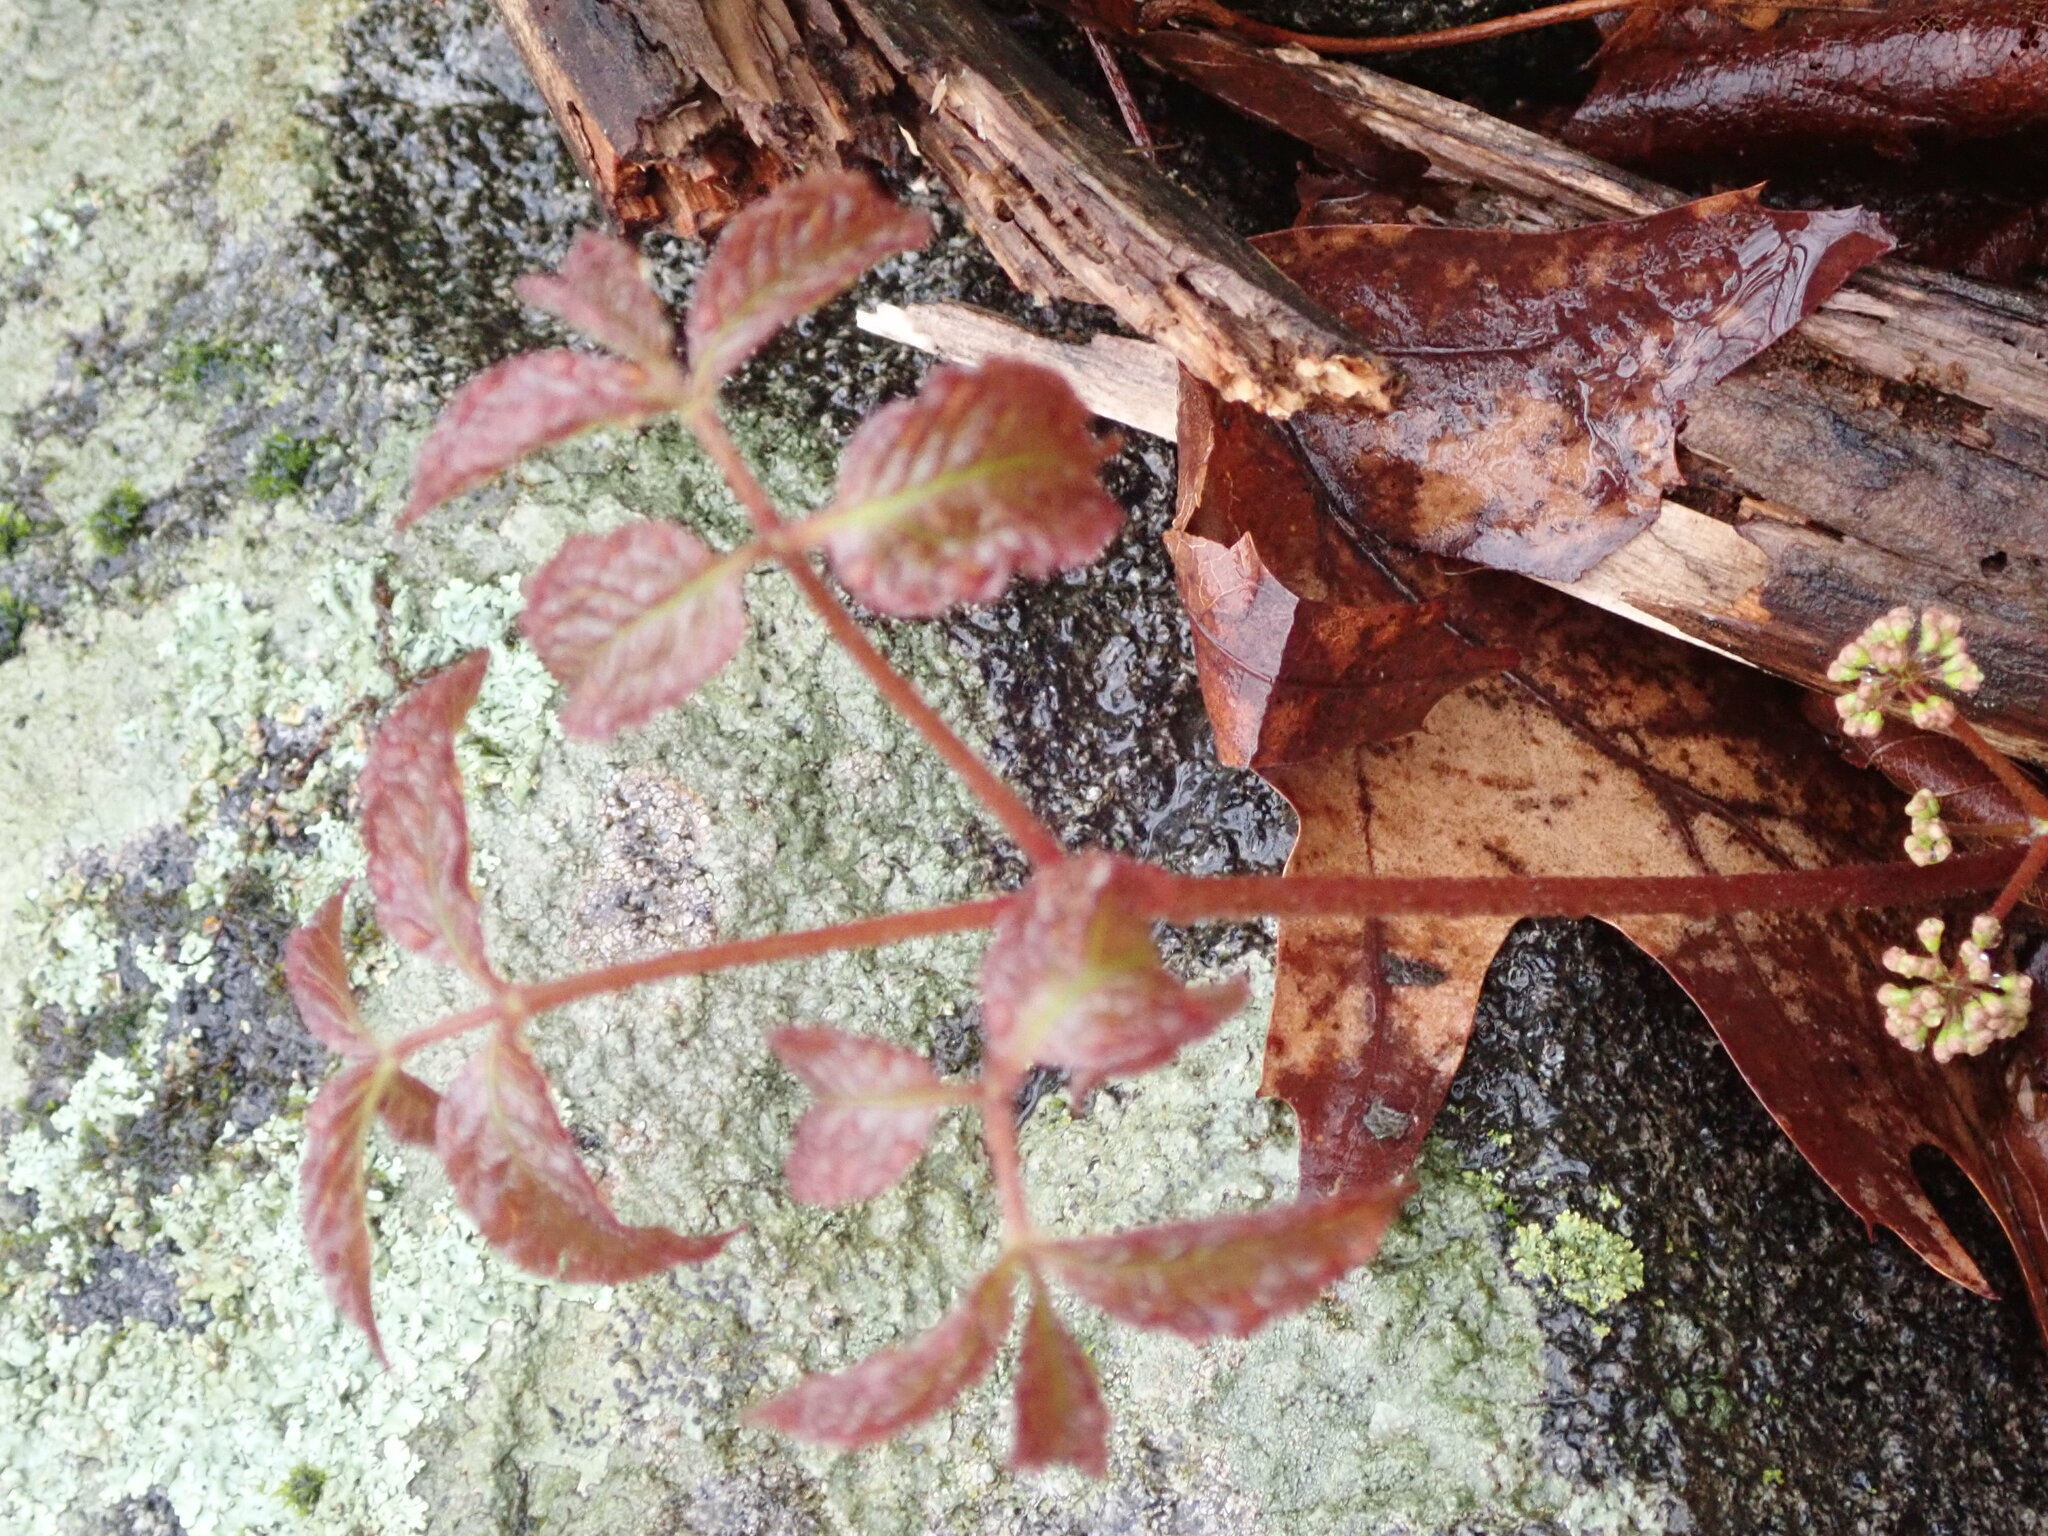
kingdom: Plantae
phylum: Tracheophyta
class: Magnoliopsida
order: Apiales
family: Araliaceae
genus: Aralia
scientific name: Aralia nudicaulis
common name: Wild sarsaparilla
